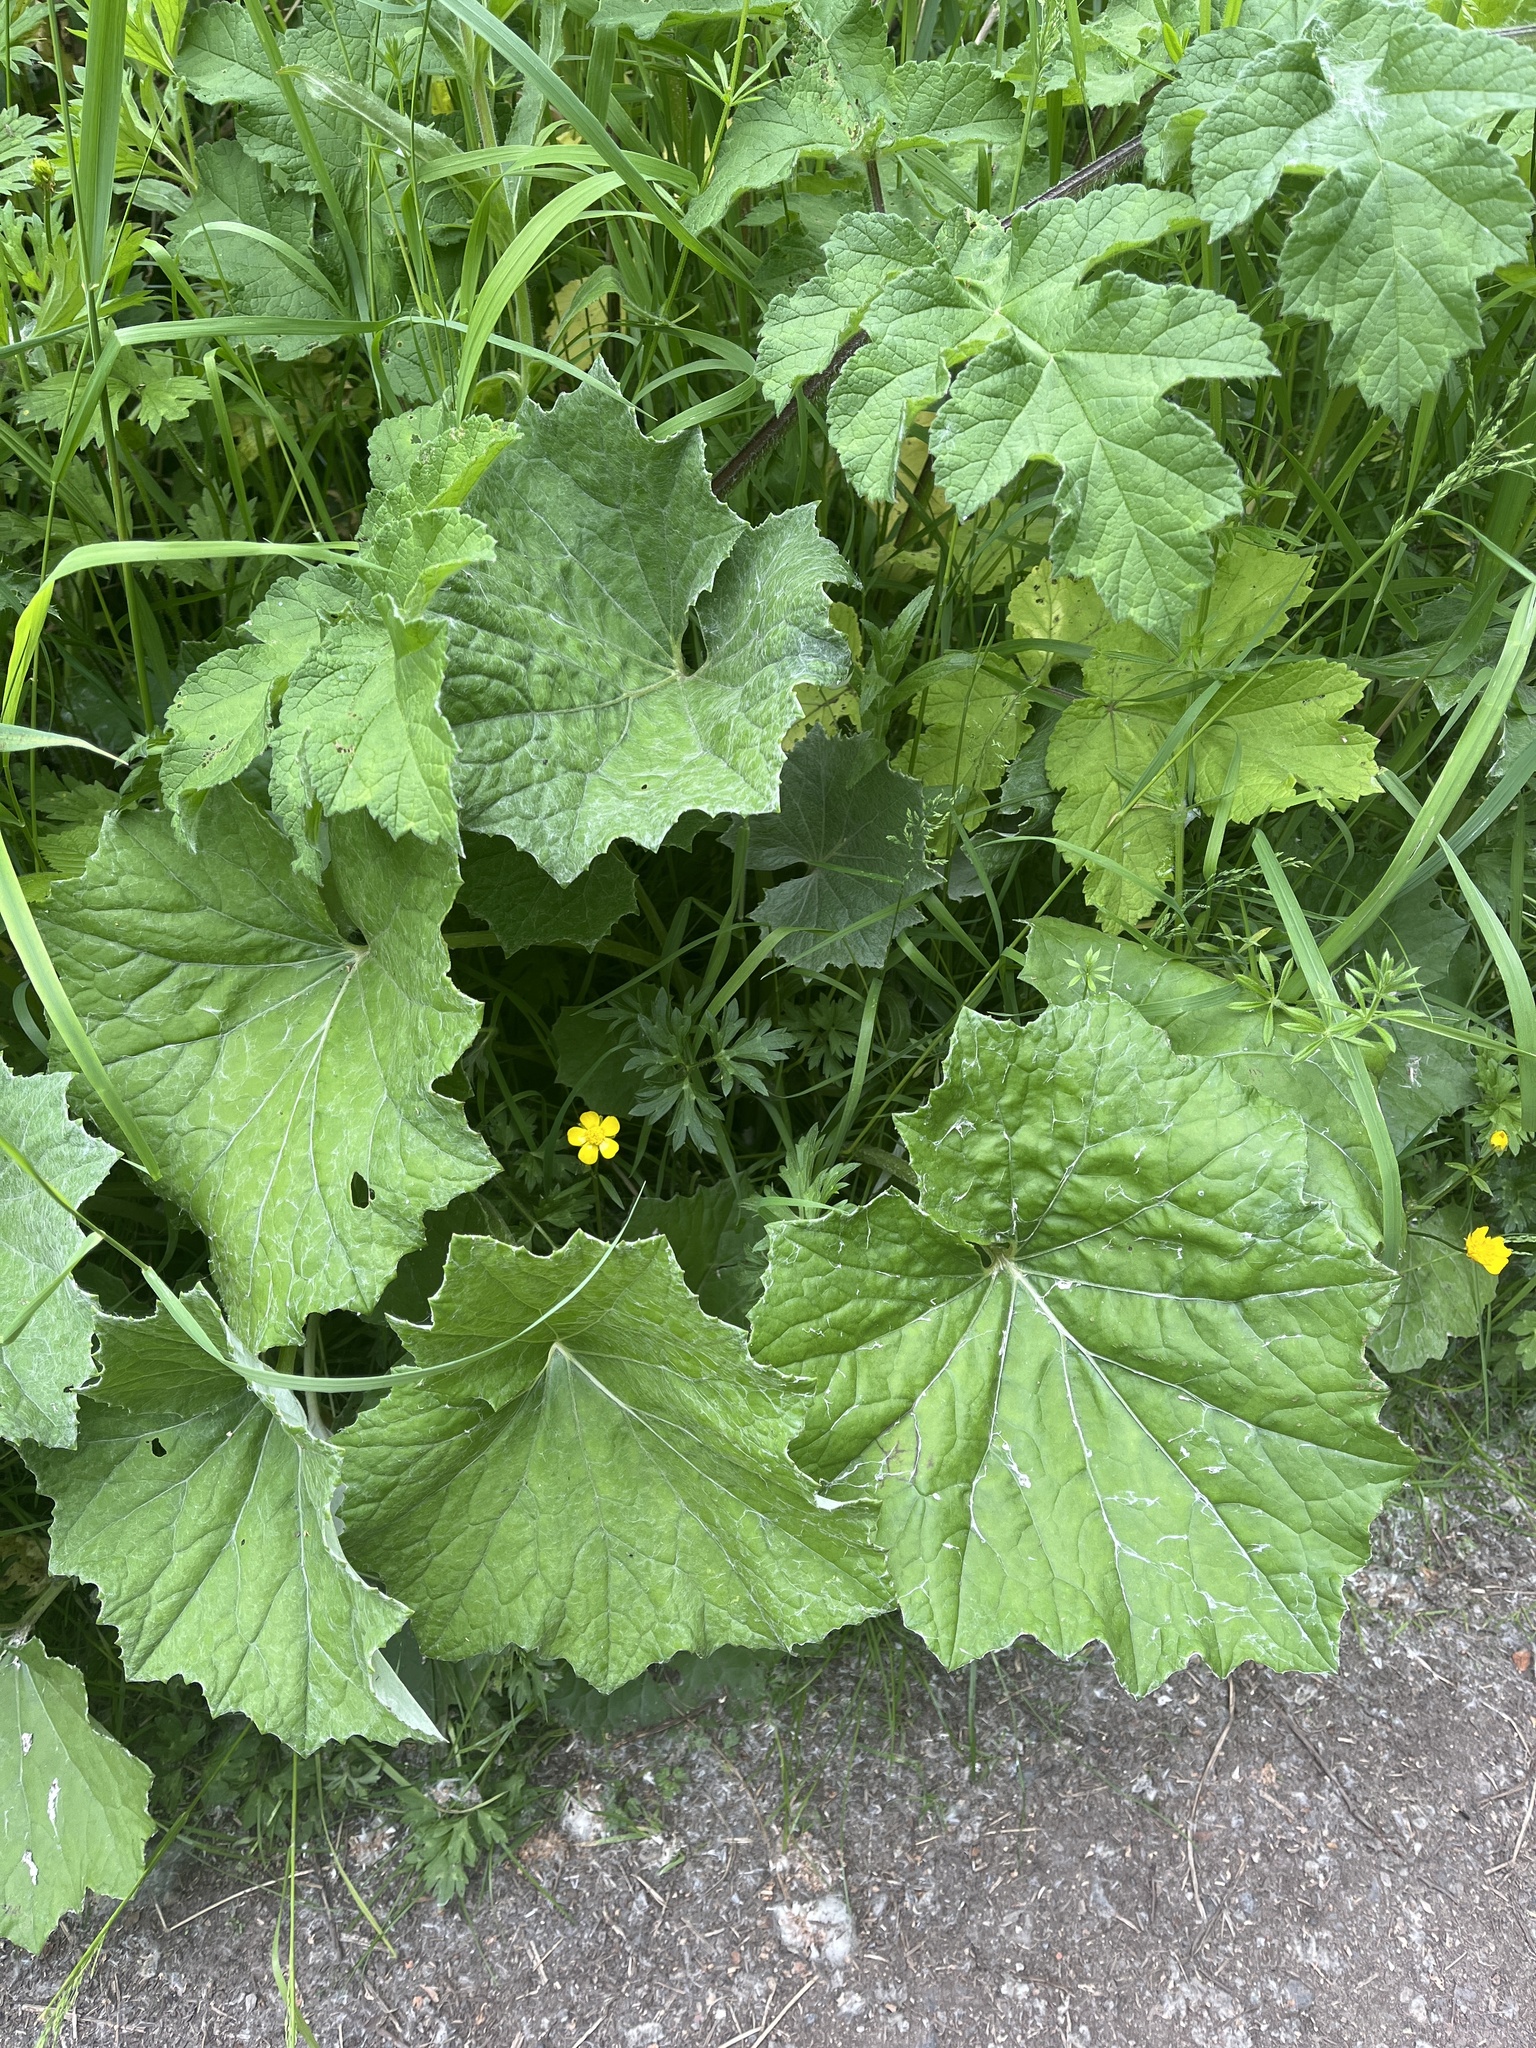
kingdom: Plantae
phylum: Tracheophyta
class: Magnoliopsida
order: Asterales
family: Asteraceae
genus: Tussilago
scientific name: Tussilago farfara
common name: Coltsfoot
